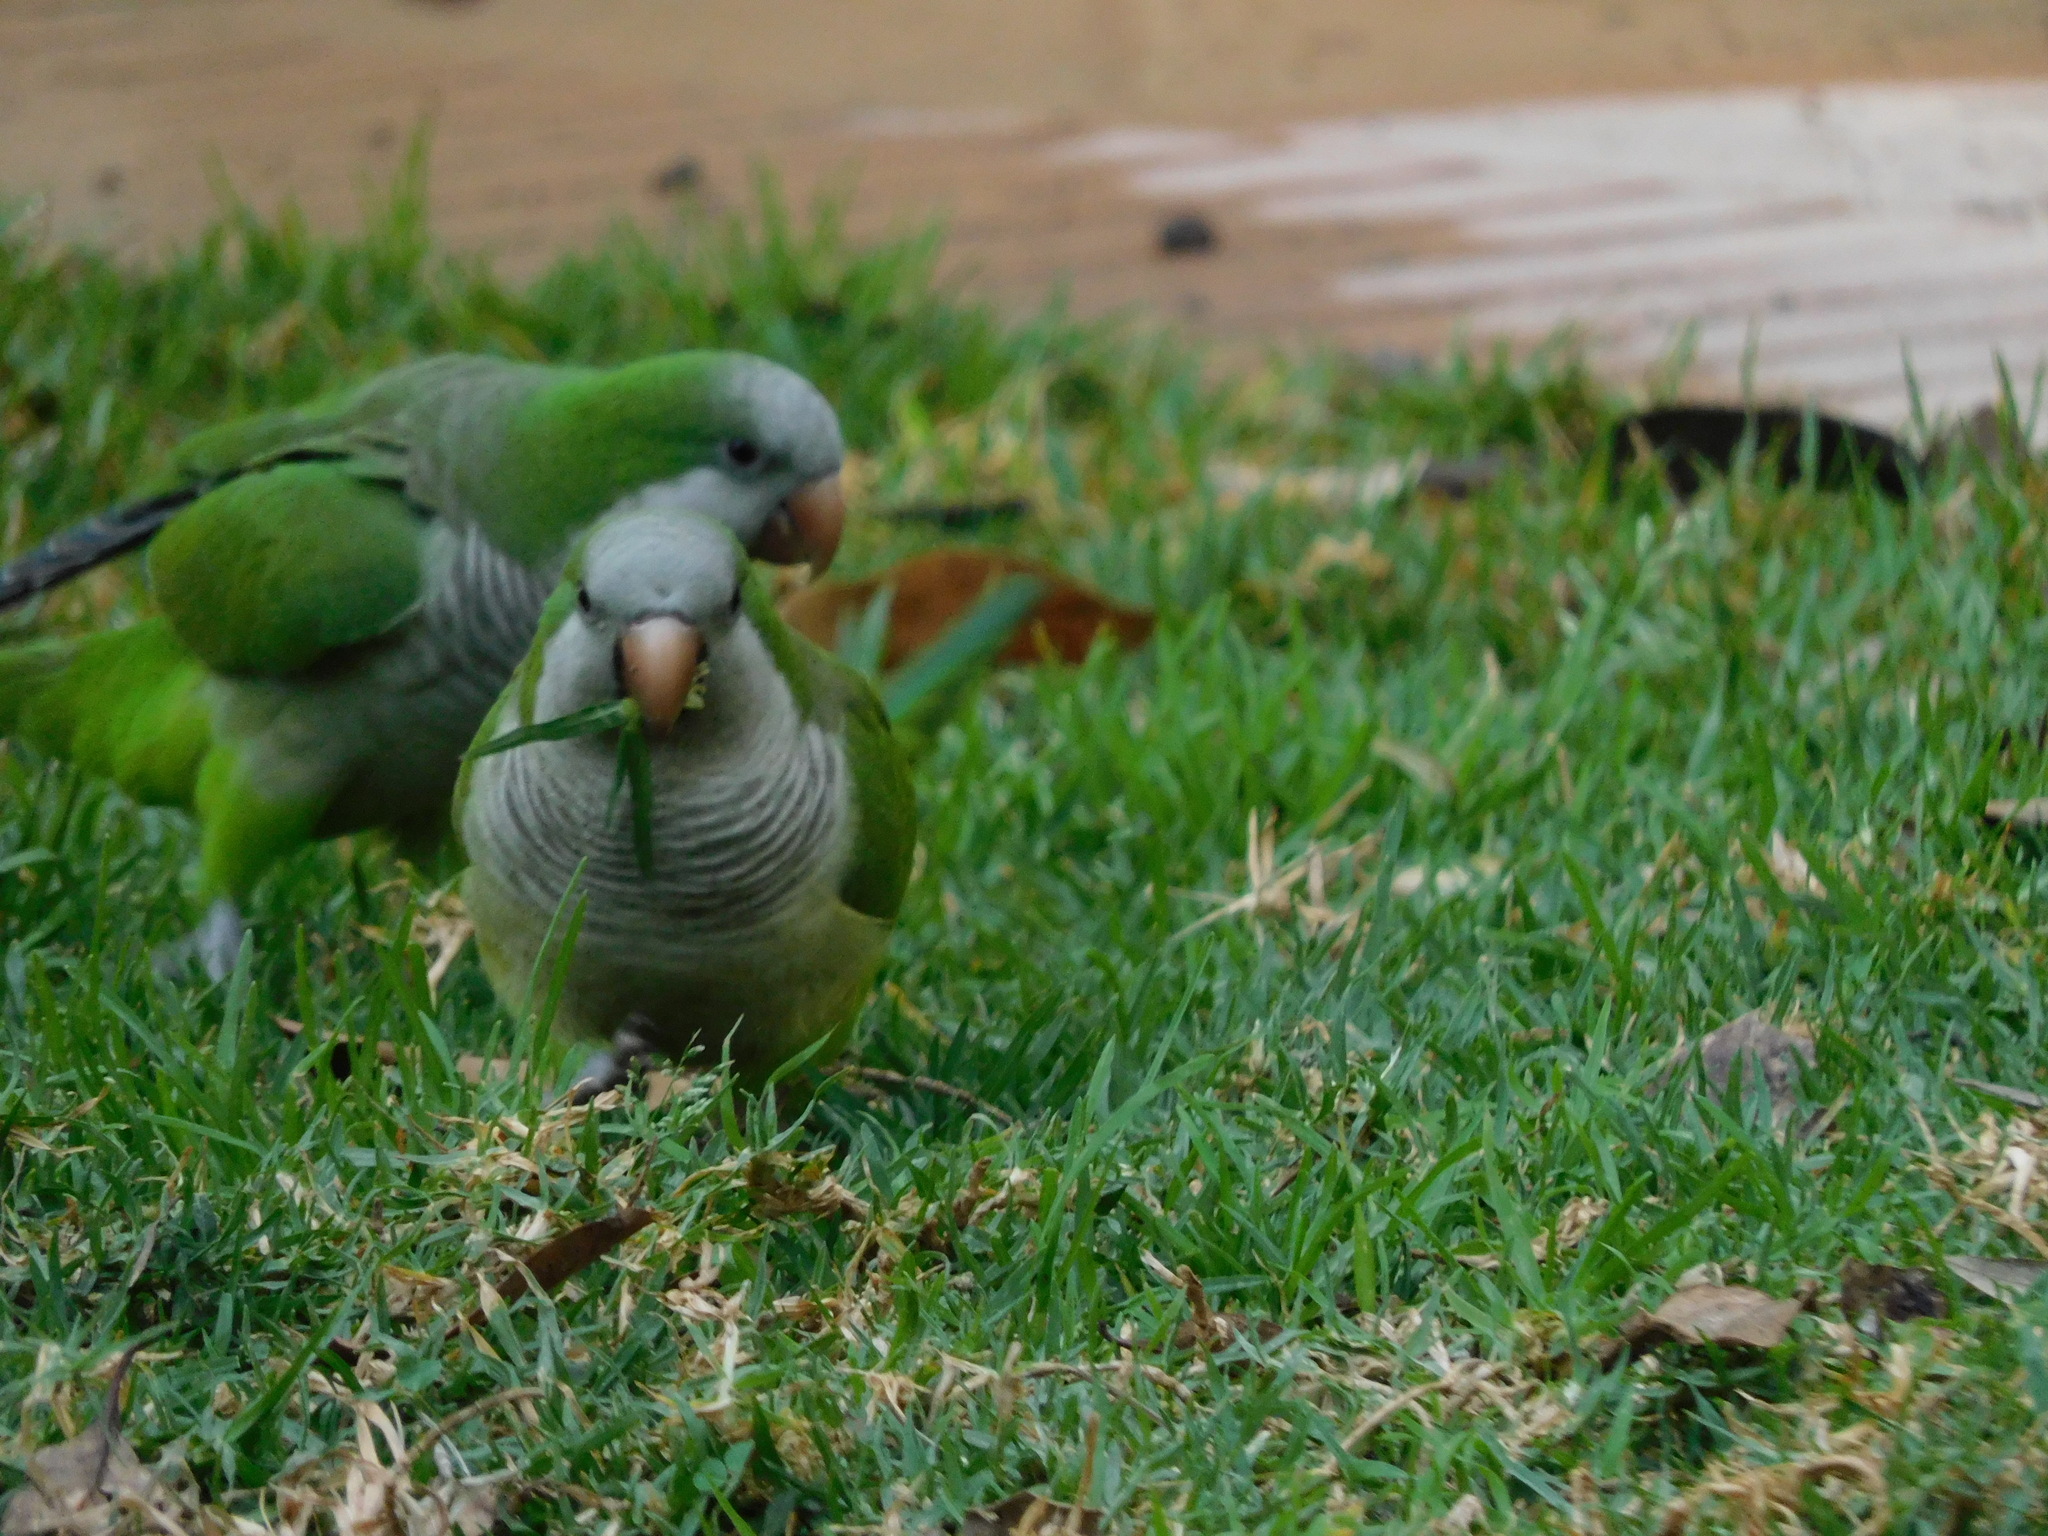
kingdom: Animalia
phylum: Chordata
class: Aves
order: Psittaciformes
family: Psittacidae
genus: Myiopsitta
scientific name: Myiopsitta monachus
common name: Monk parakeet
